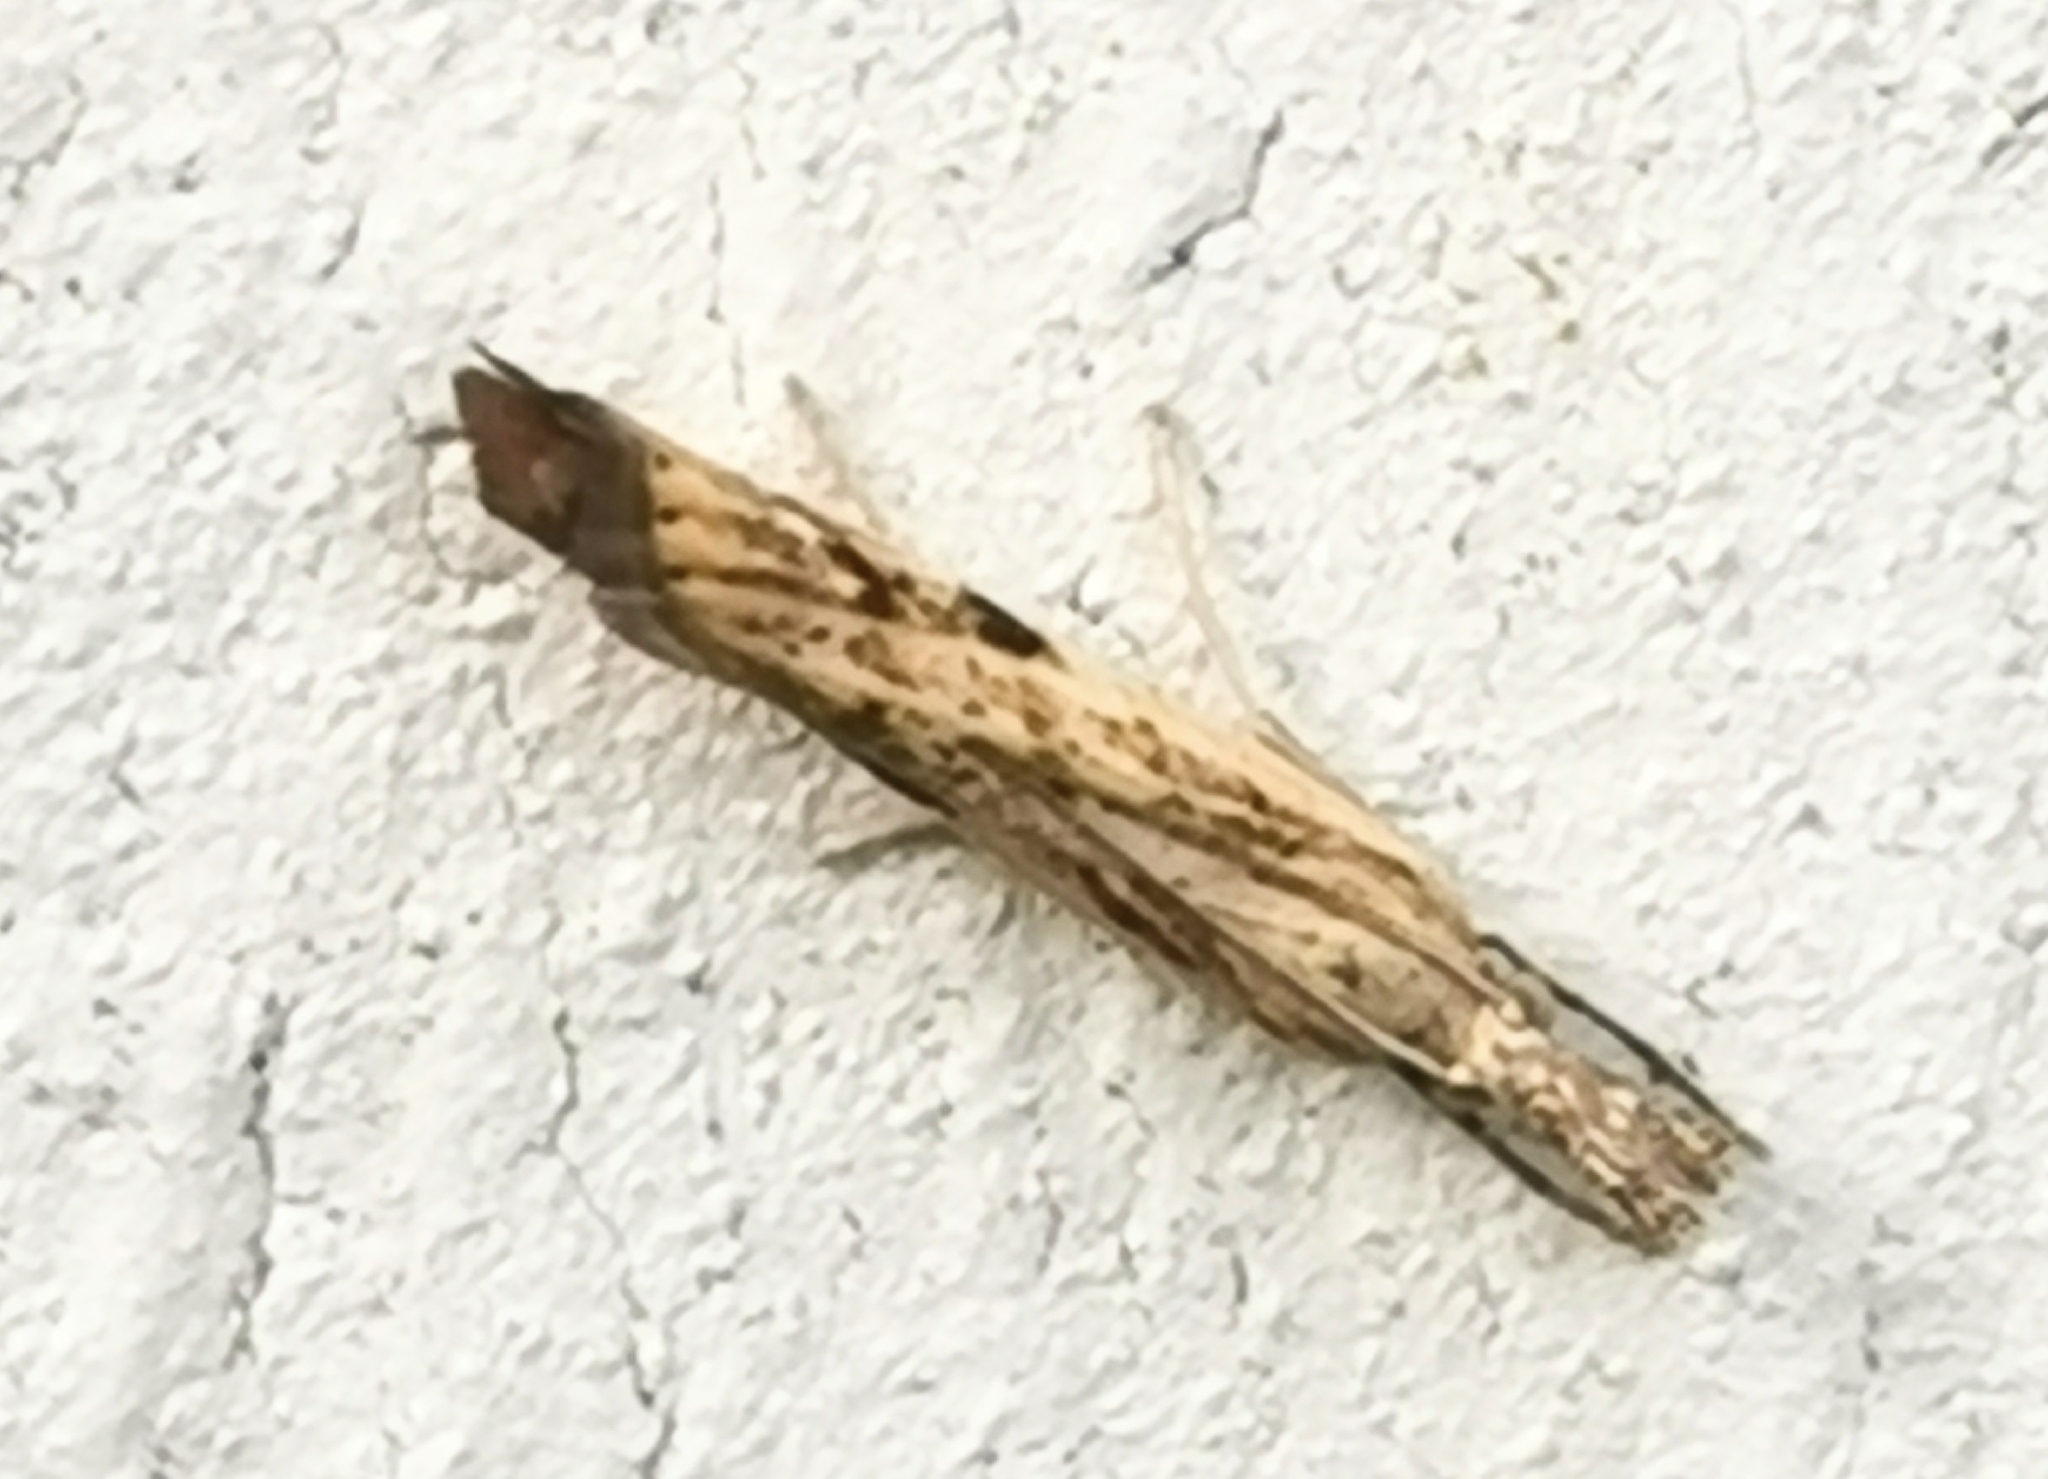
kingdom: Animalia
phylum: Arthropoda
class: Insecta
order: Lepidoptera
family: Crambidae
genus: Agriphila
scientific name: Agriphila inquinatella
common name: Barred grass-veneer
